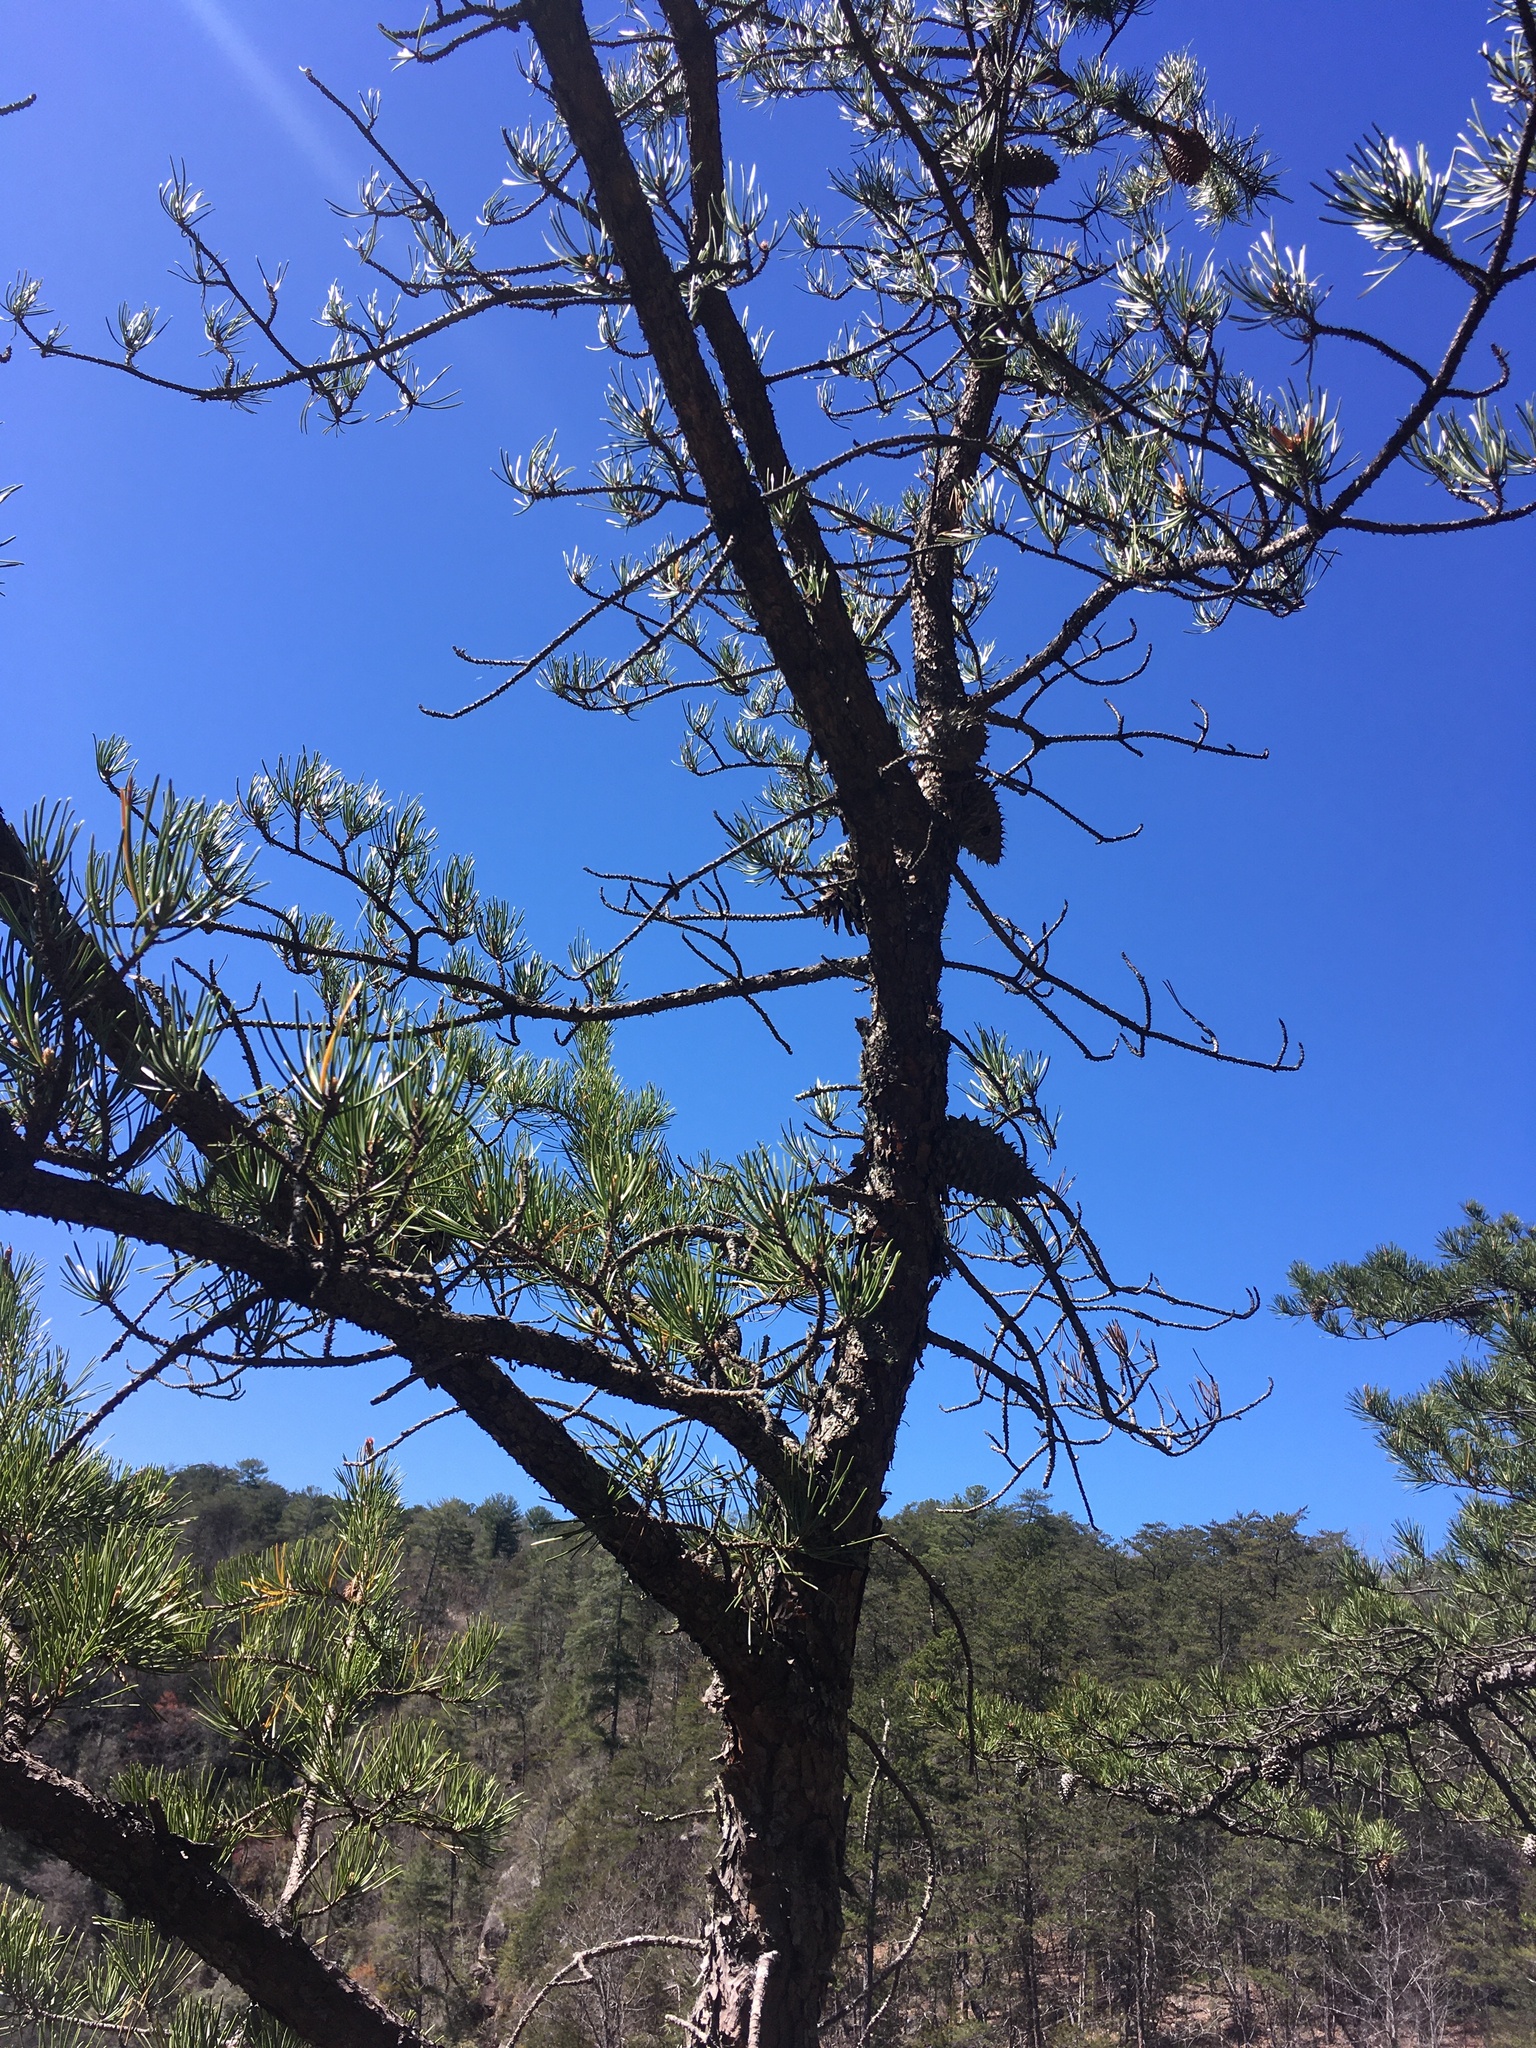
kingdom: Plantae
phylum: Tracheophyta
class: Pinopsida
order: Pinales
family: Pinaceae
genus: Pinus
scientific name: Pinus pungens
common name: Hickory pine
